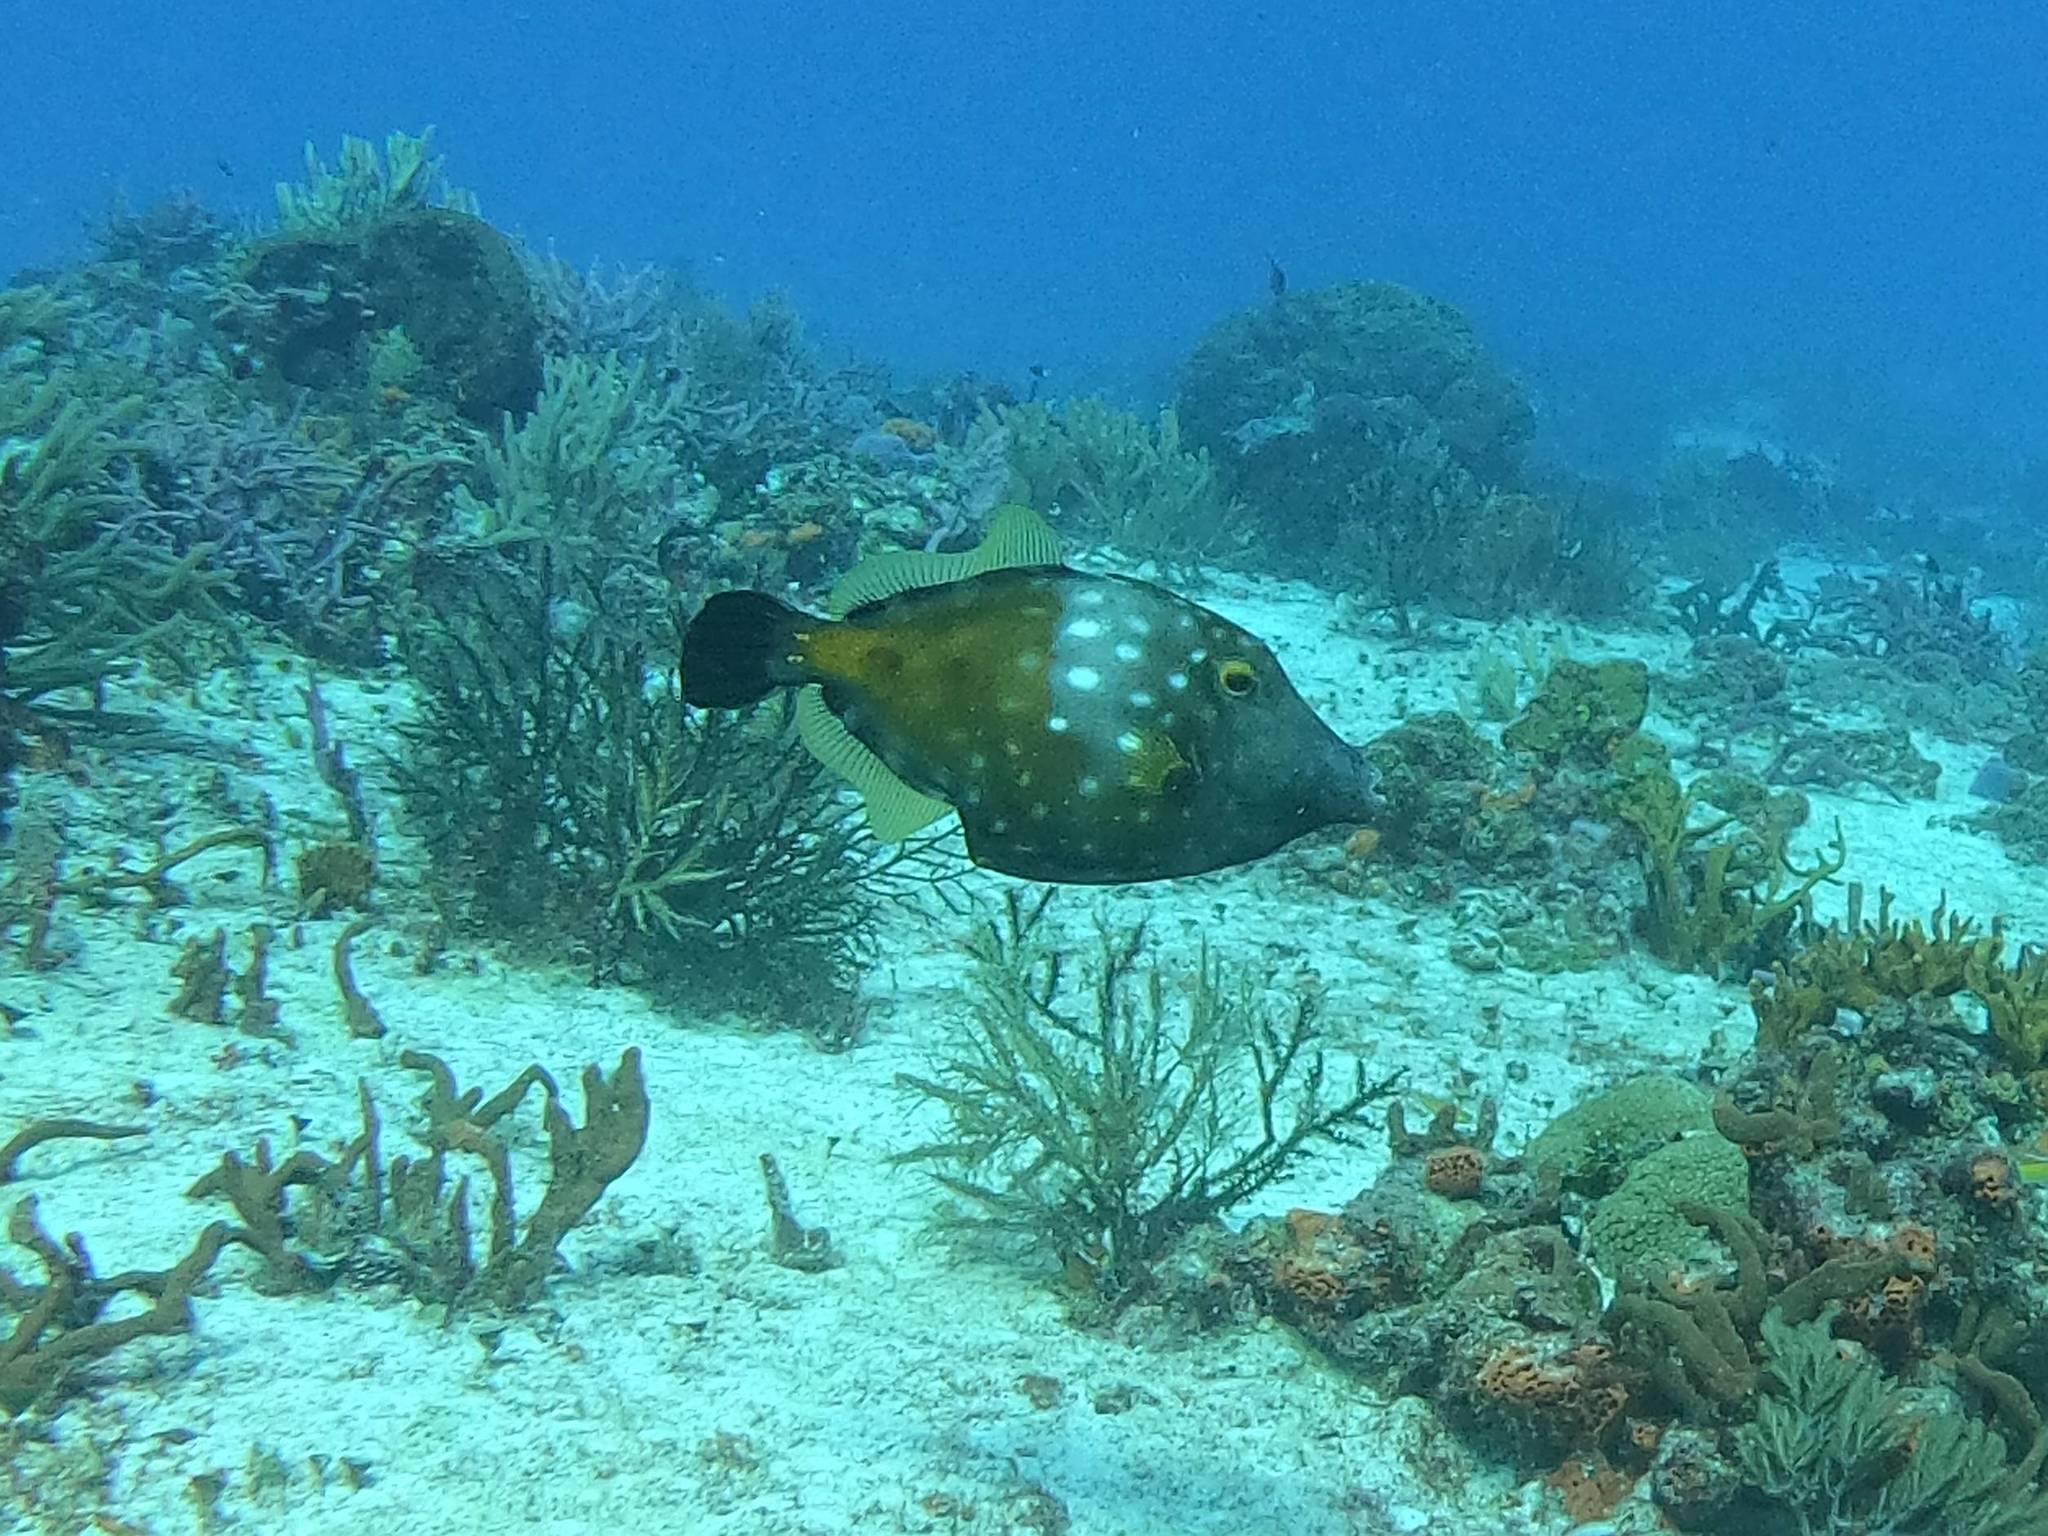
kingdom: Animalia
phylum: Chordata
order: Tetraodontiformes
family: Monacanthidae
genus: Cantherhines
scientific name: Cantherhines macrocerus
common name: Whitespotted filefish
